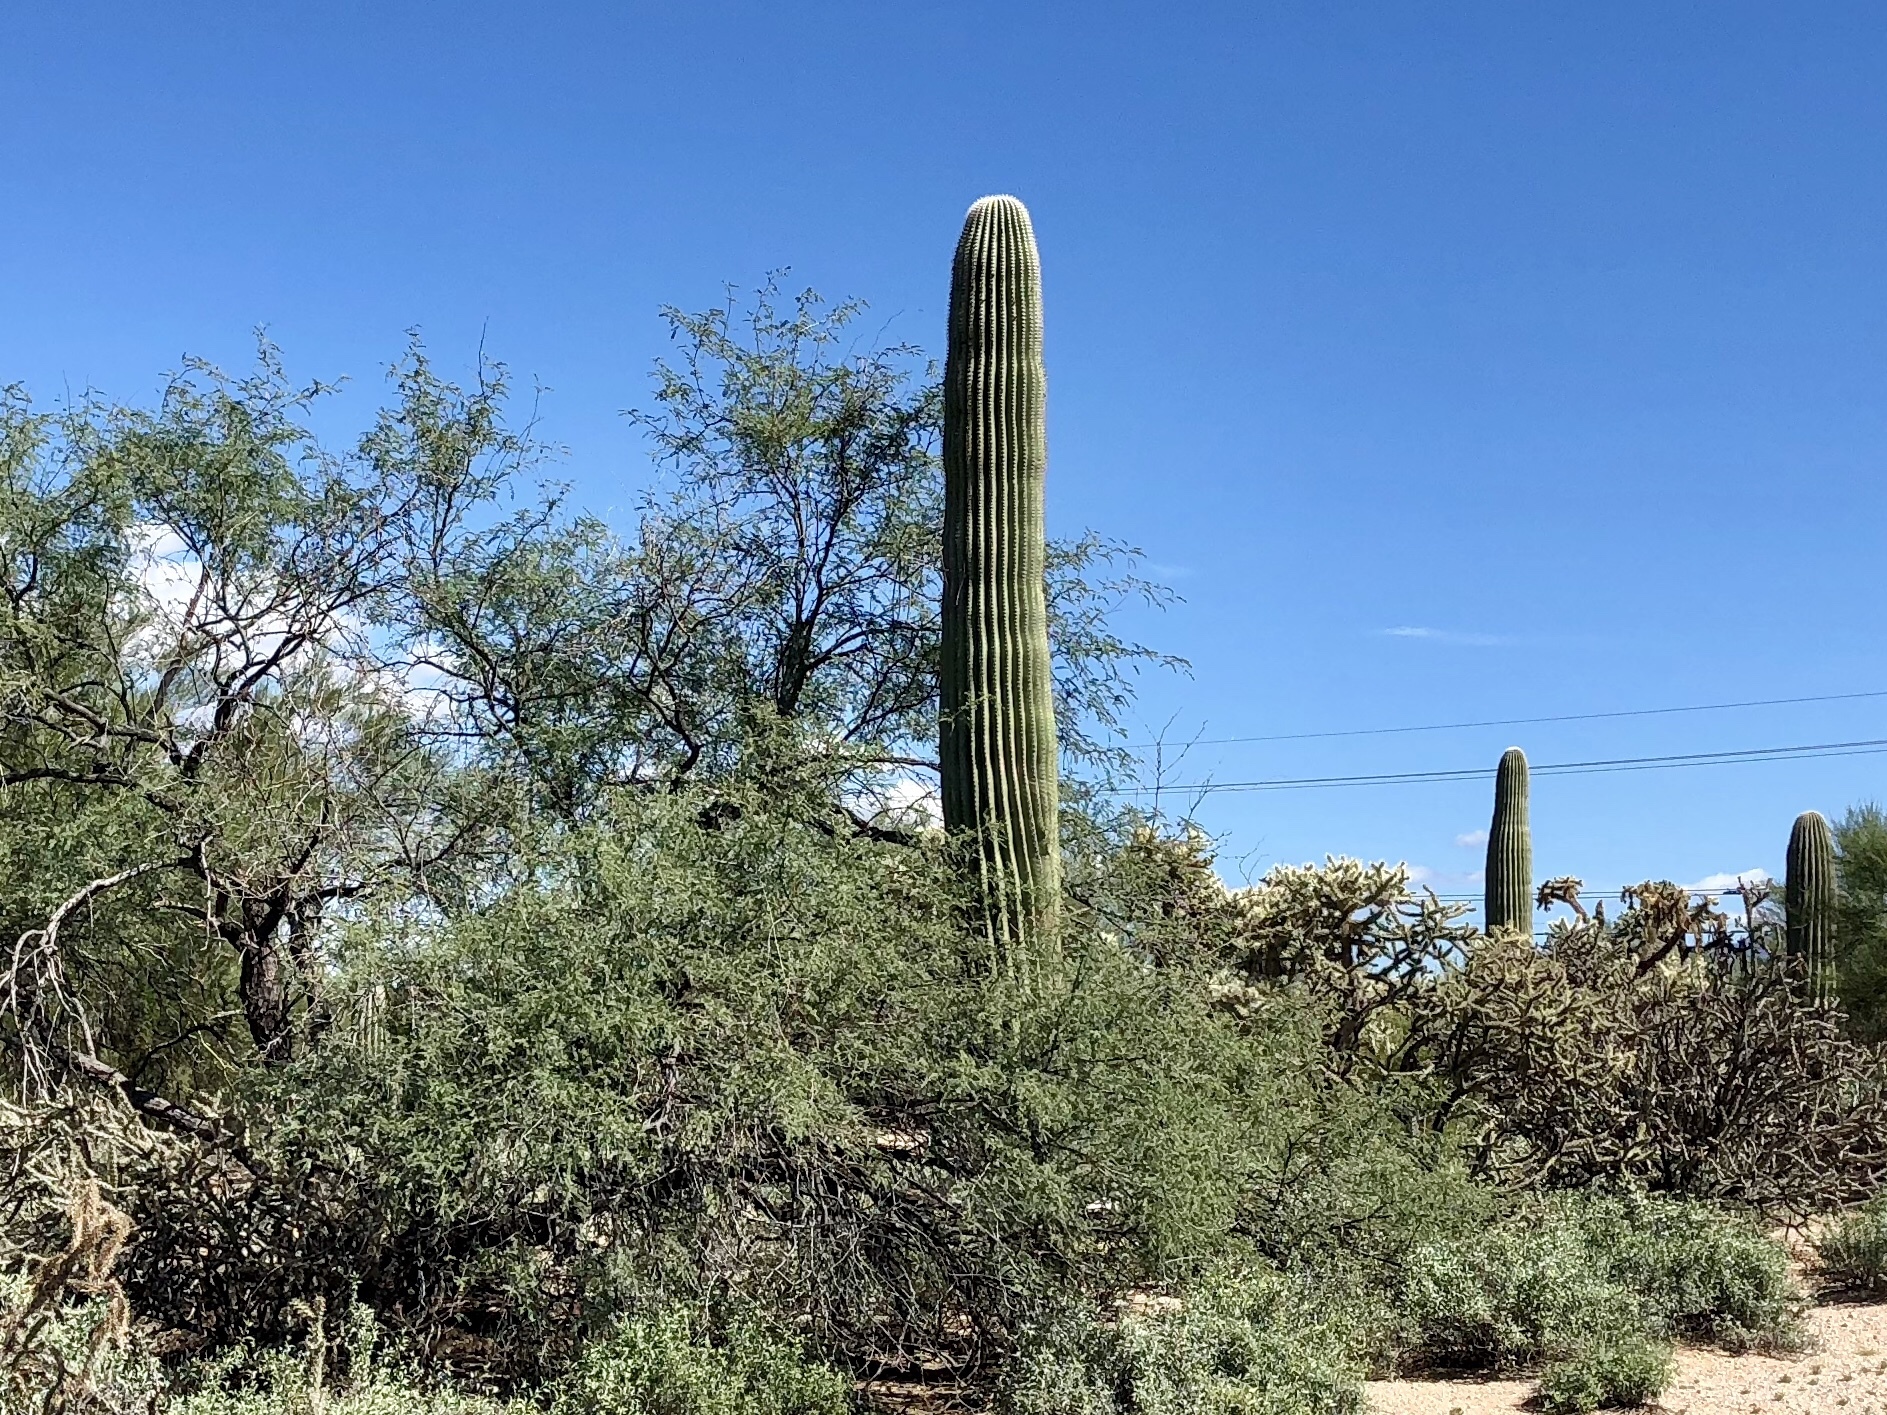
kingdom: Plantae
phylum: Tracheophyta
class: Magnoliopsida
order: Caryophyllales
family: Cactaceae
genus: Carnegiea
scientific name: Carnegiea gigantea
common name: Saguaro
